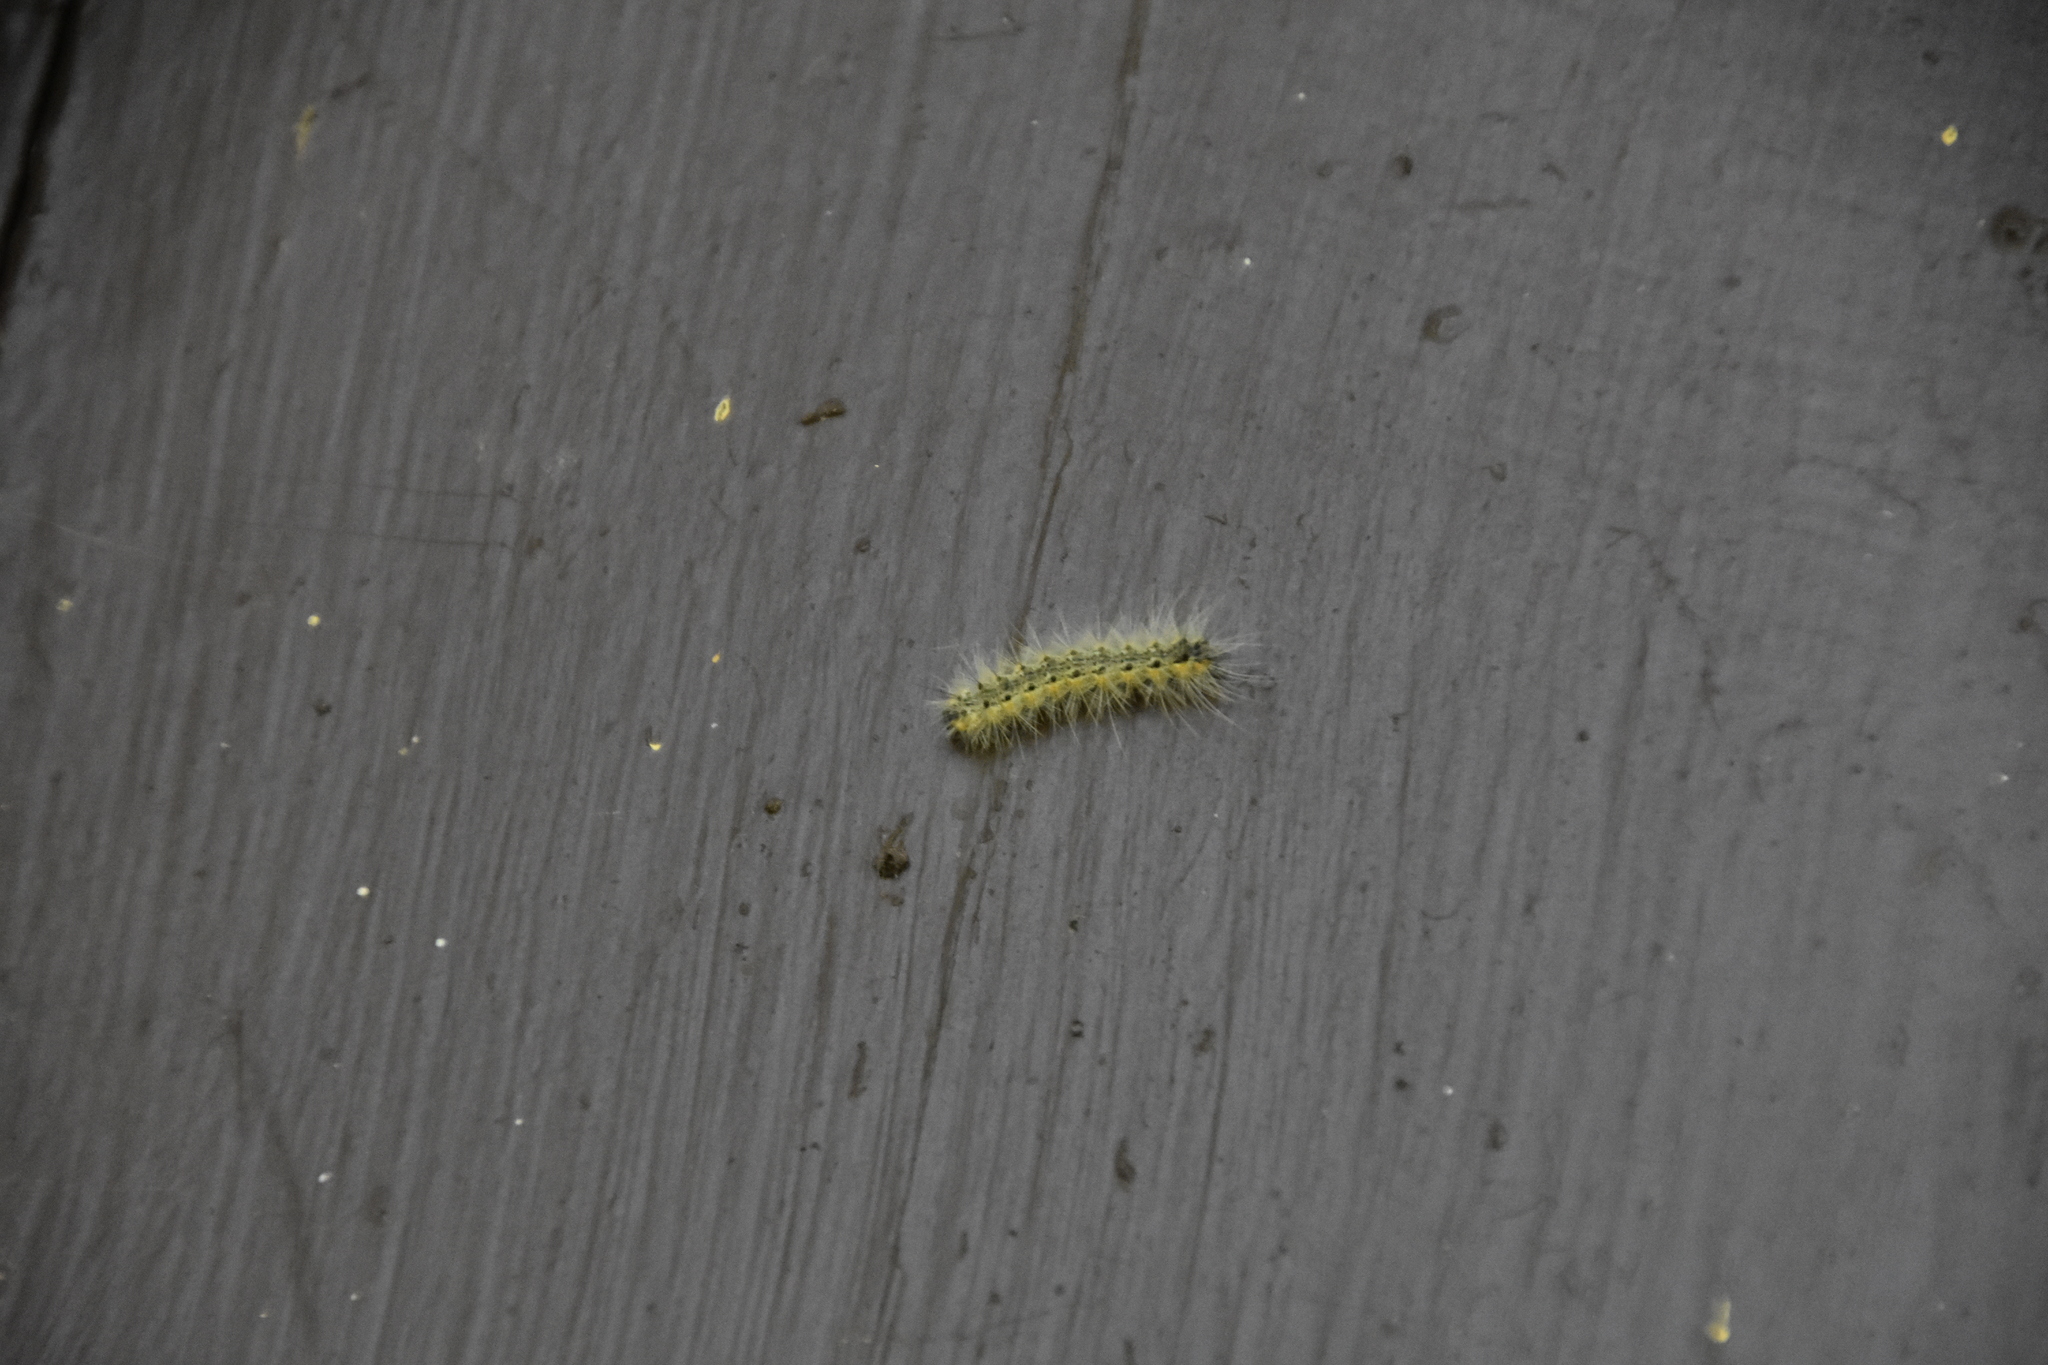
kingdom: Animalia
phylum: Arthropoda
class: Insecta
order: Lepidoptera
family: Erebidae
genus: Hyphantria
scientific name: Hyphantria cunea
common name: American white moth
